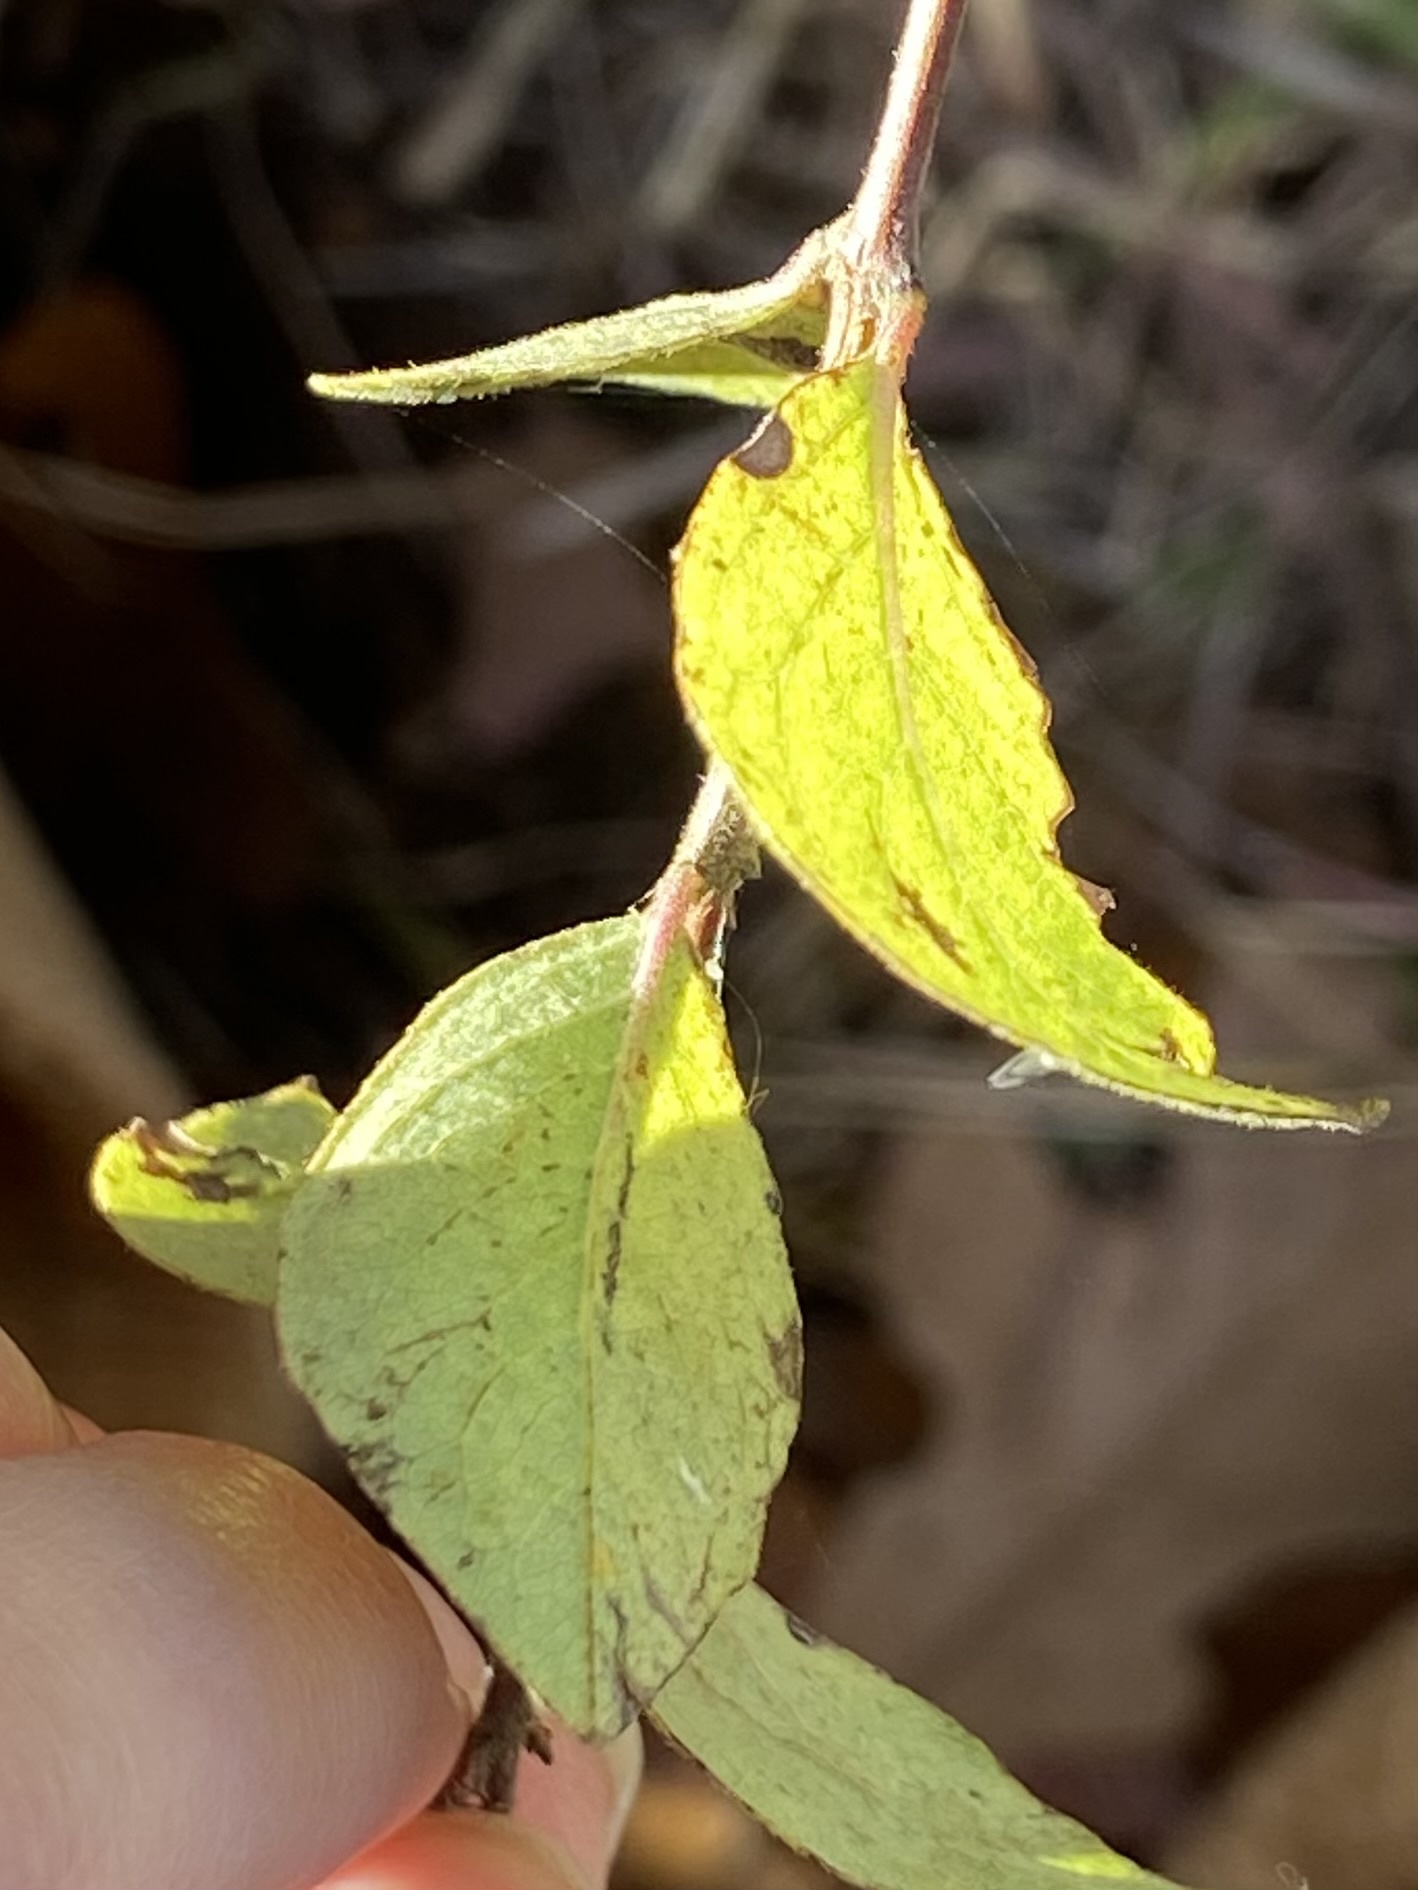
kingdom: Plantae
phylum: Tracheophyta
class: Magnoliopsida
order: Dipsacales
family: Caprifoliaceae
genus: Symphoricarpos
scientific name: Symphoricarpos orbiculatus
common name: Coralberry
